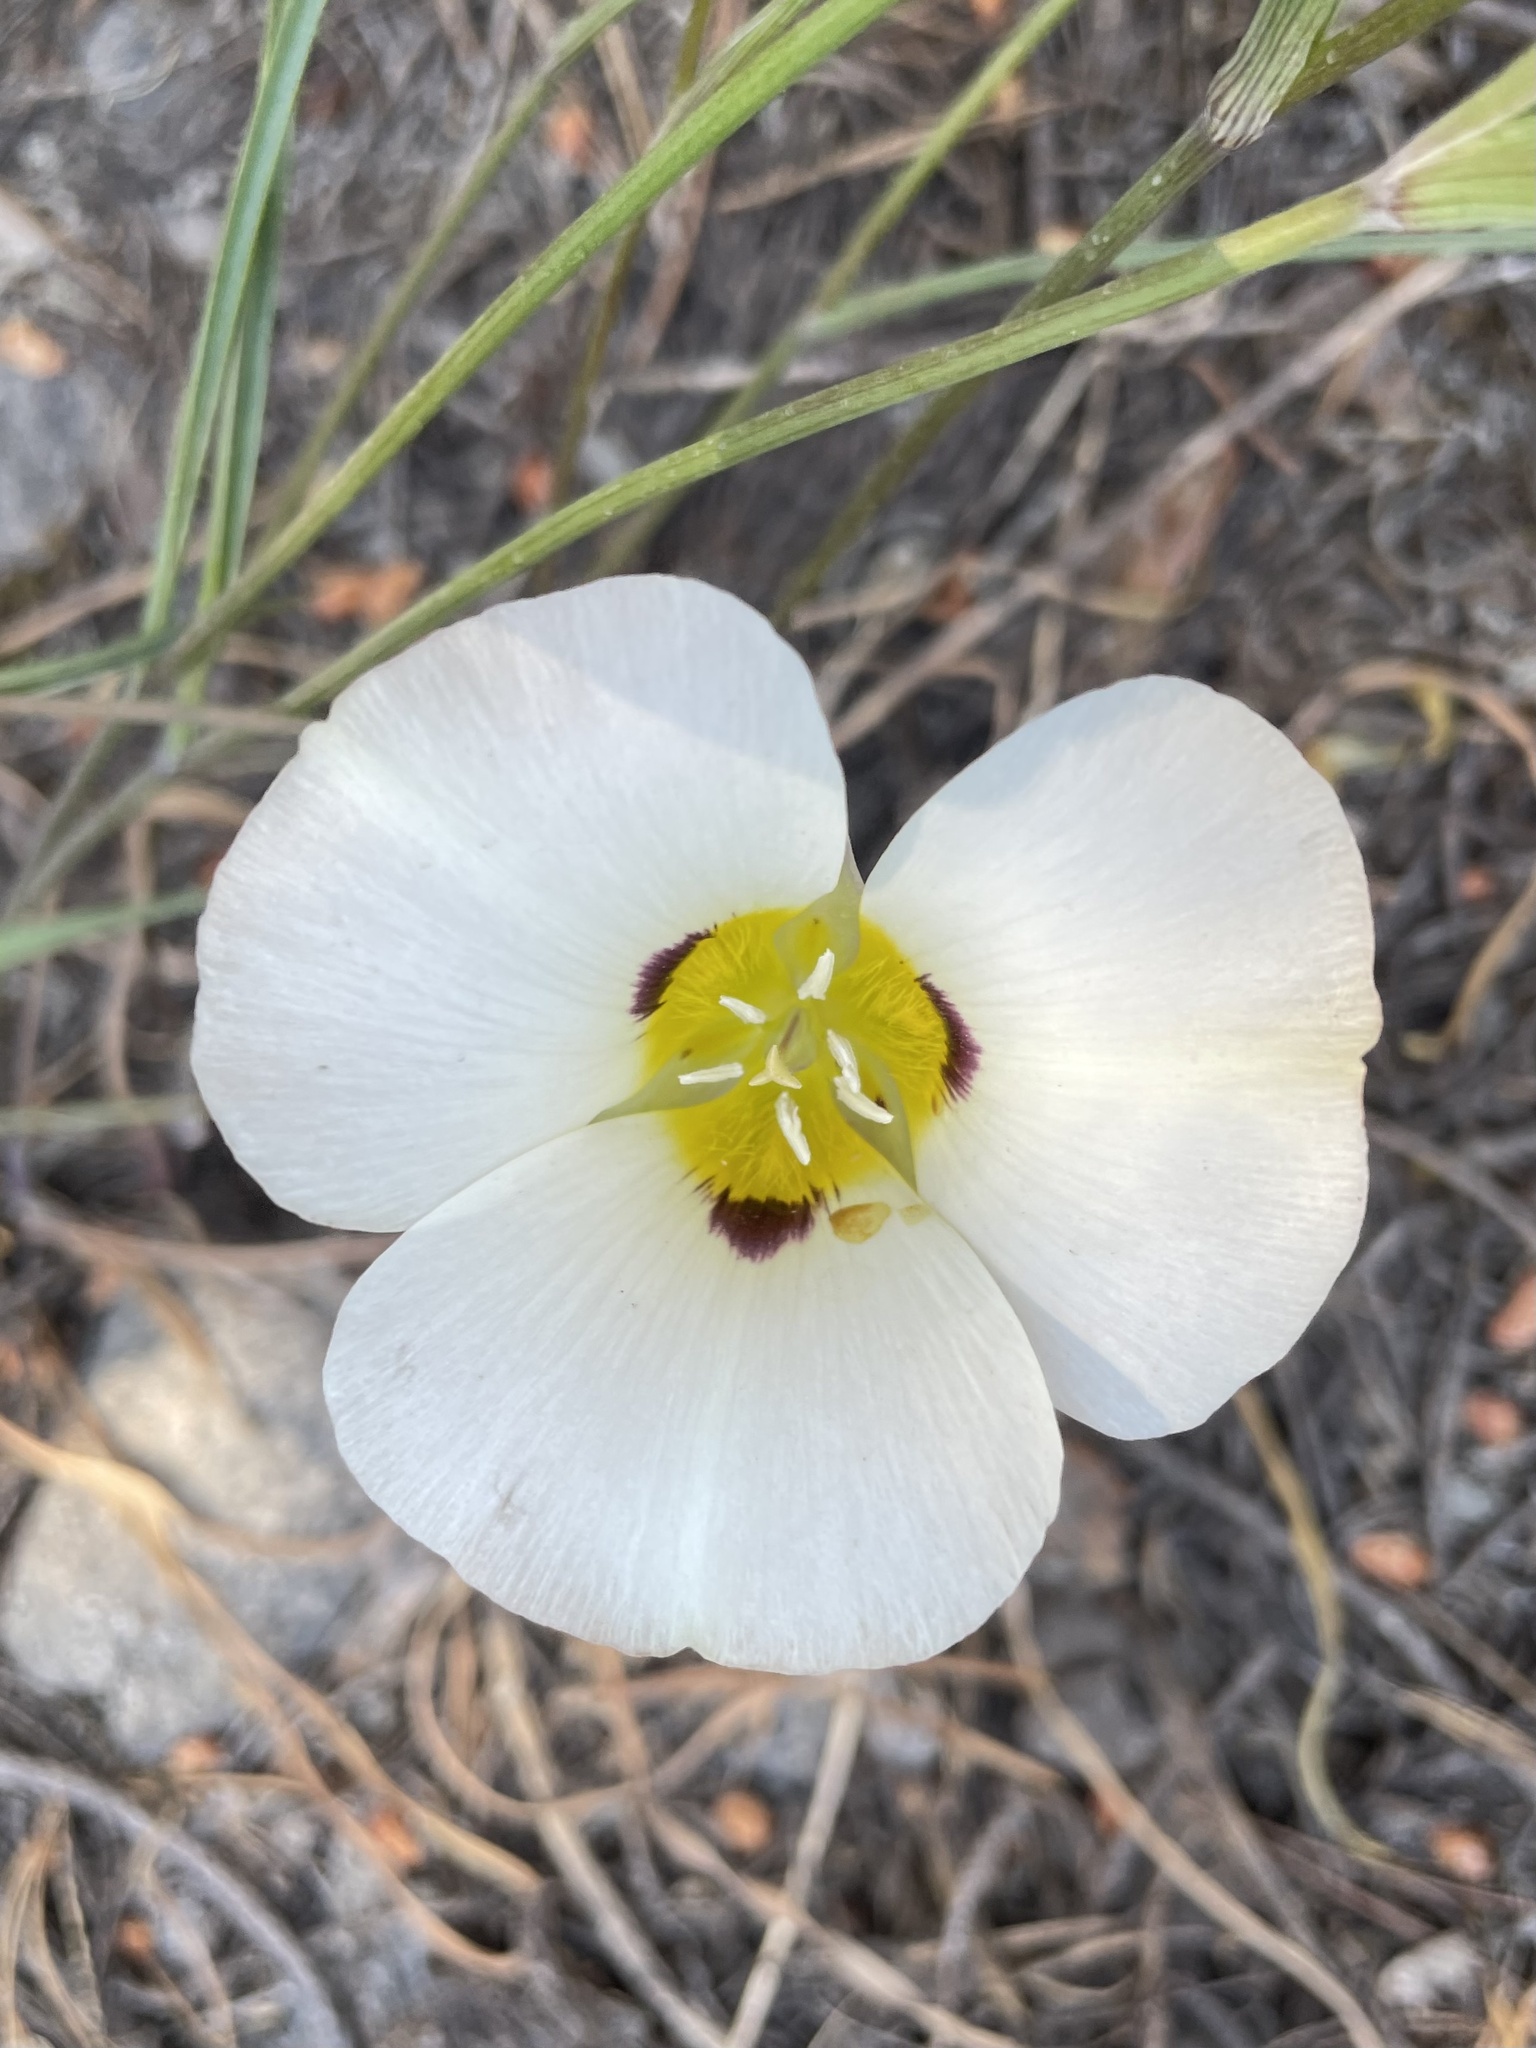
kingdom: Plantae
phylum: Tracheophyta
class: Liliopsida
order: Liliales
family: Liliaceae
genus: Calochortus
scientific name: Calochortus leichtlinii
